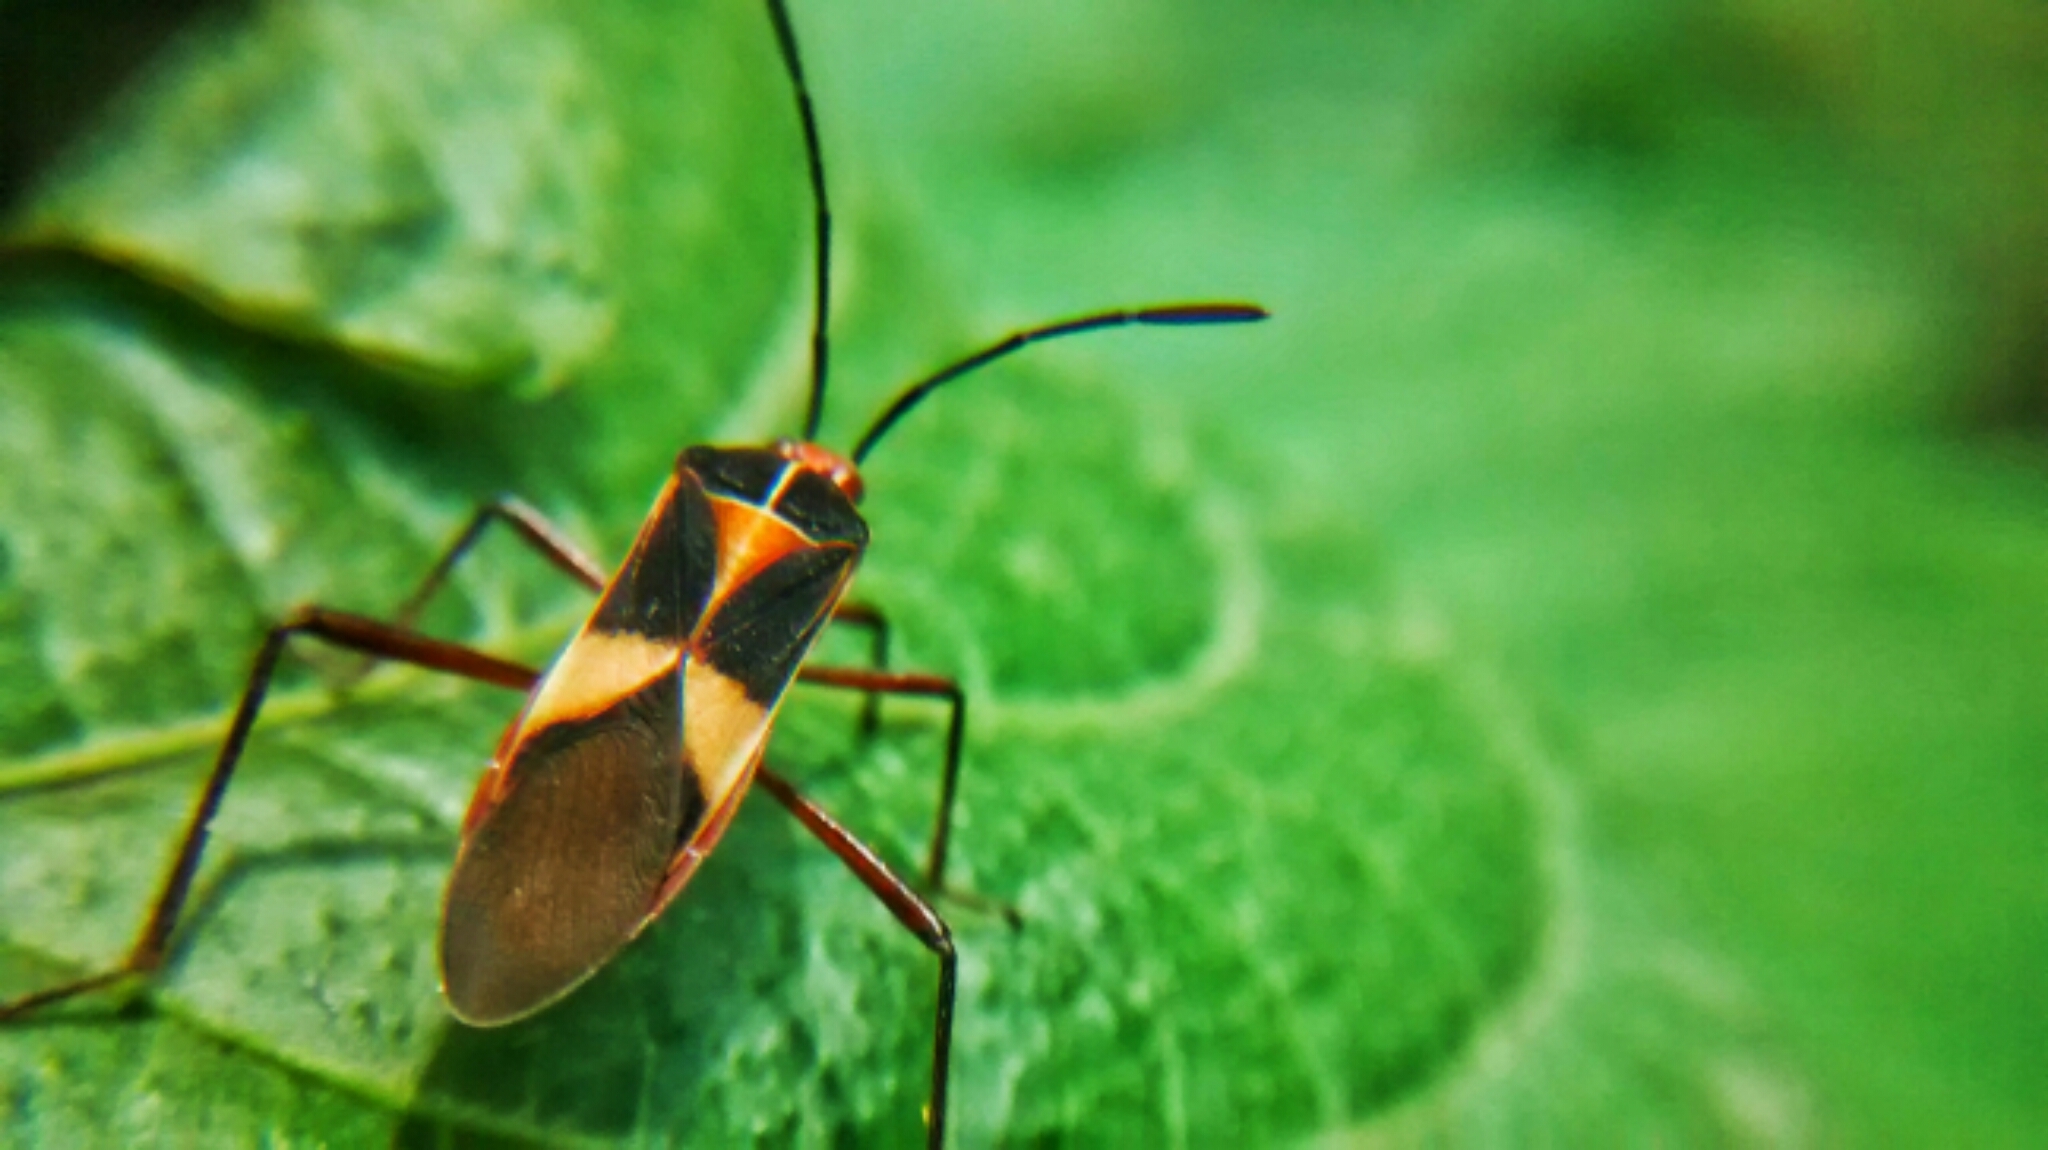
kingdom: Animalia
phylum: Arthropoda
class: Insecta
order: Hemiptera
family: Coreidae
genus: Hypselonotus
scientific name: Hypselonotus interruptus
